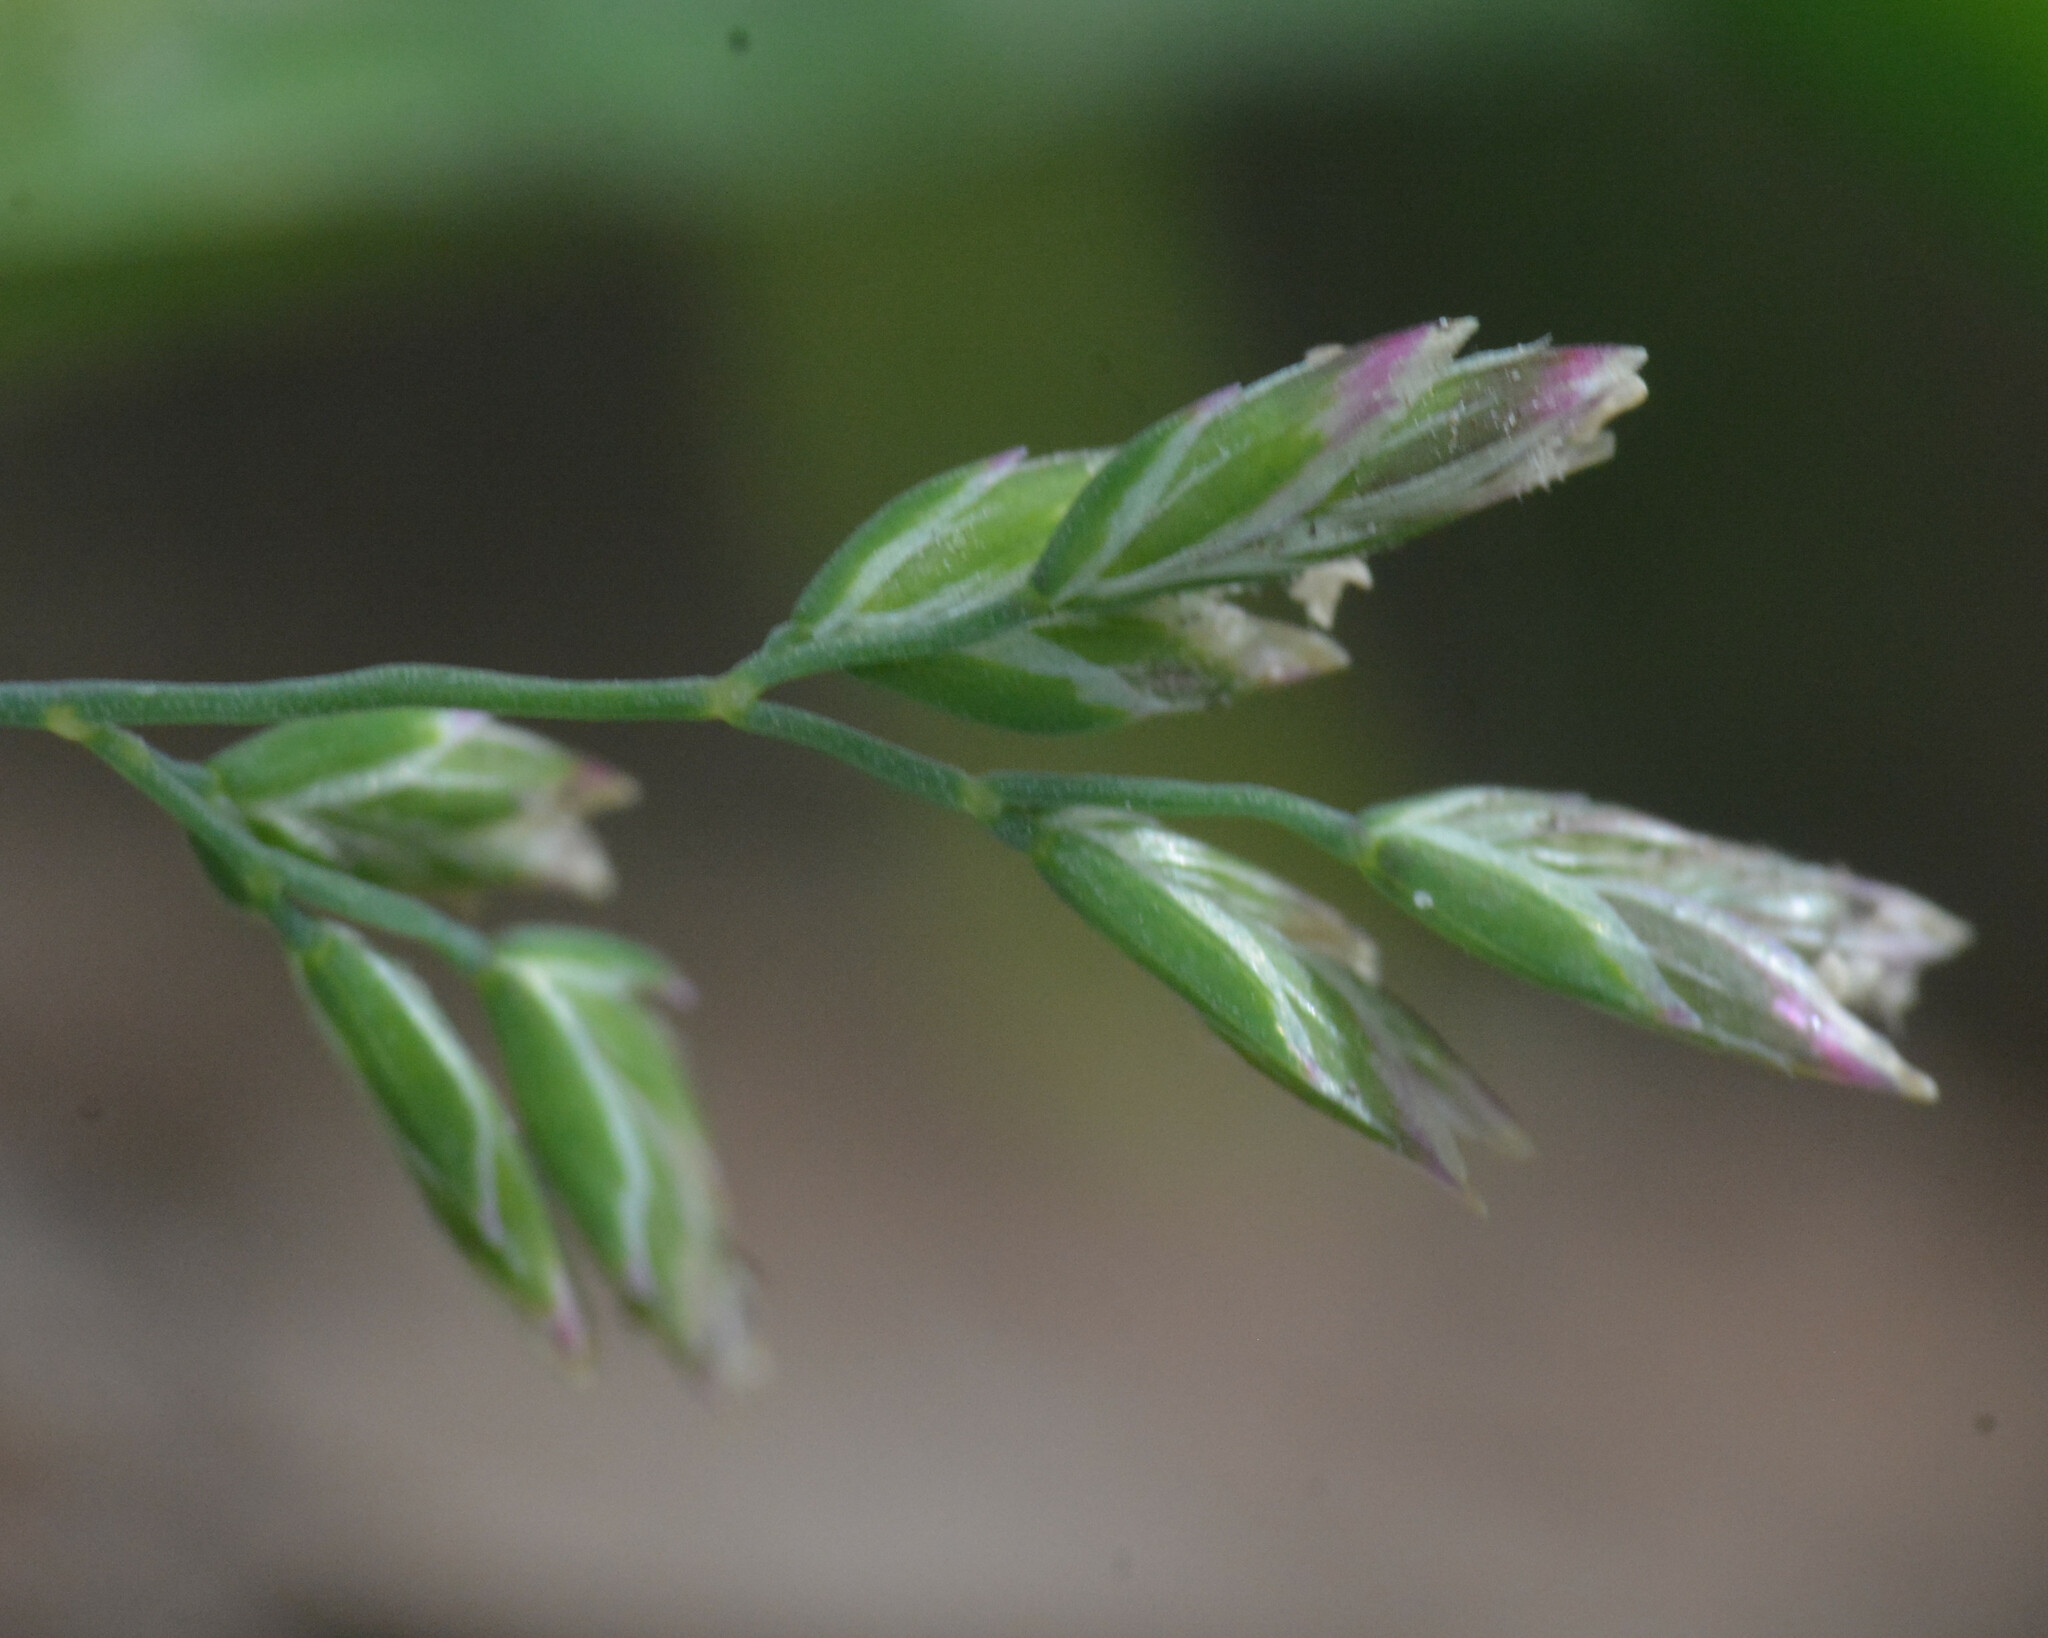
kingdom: Plantae
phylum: Tracheophyta
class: Liliopsida
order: Poales
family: Poaceae
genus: Poa
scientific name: Poa annua
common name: Annual bluegrass
